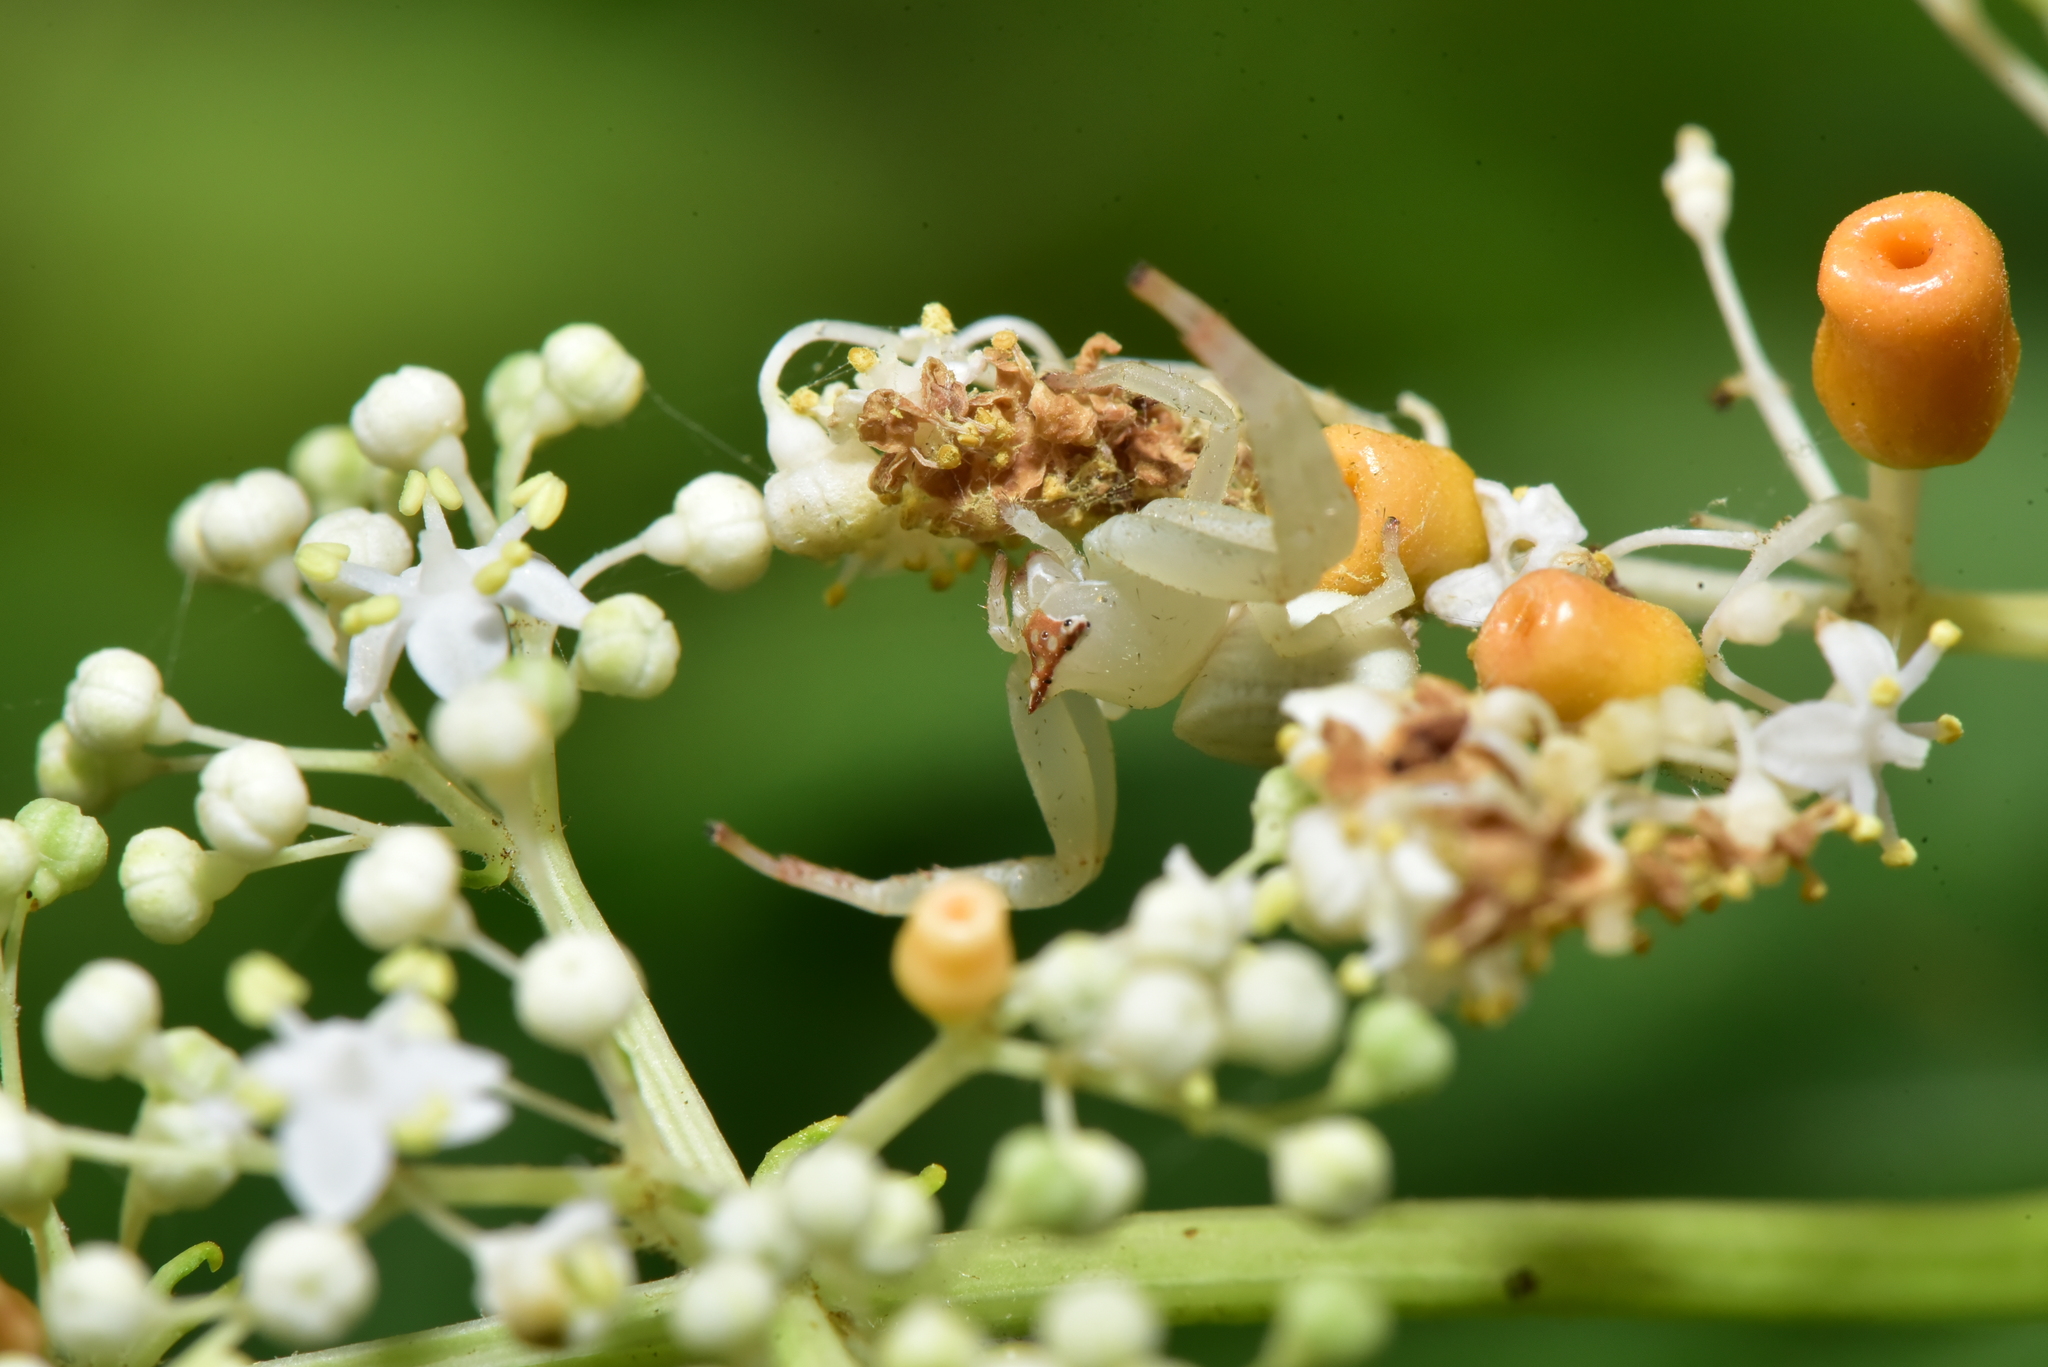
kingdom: Animalia
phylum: Arthropoda
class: Arachnida
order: Araneae
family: Thomisidae
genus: Thomisus
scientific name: Thomisus labefactus
